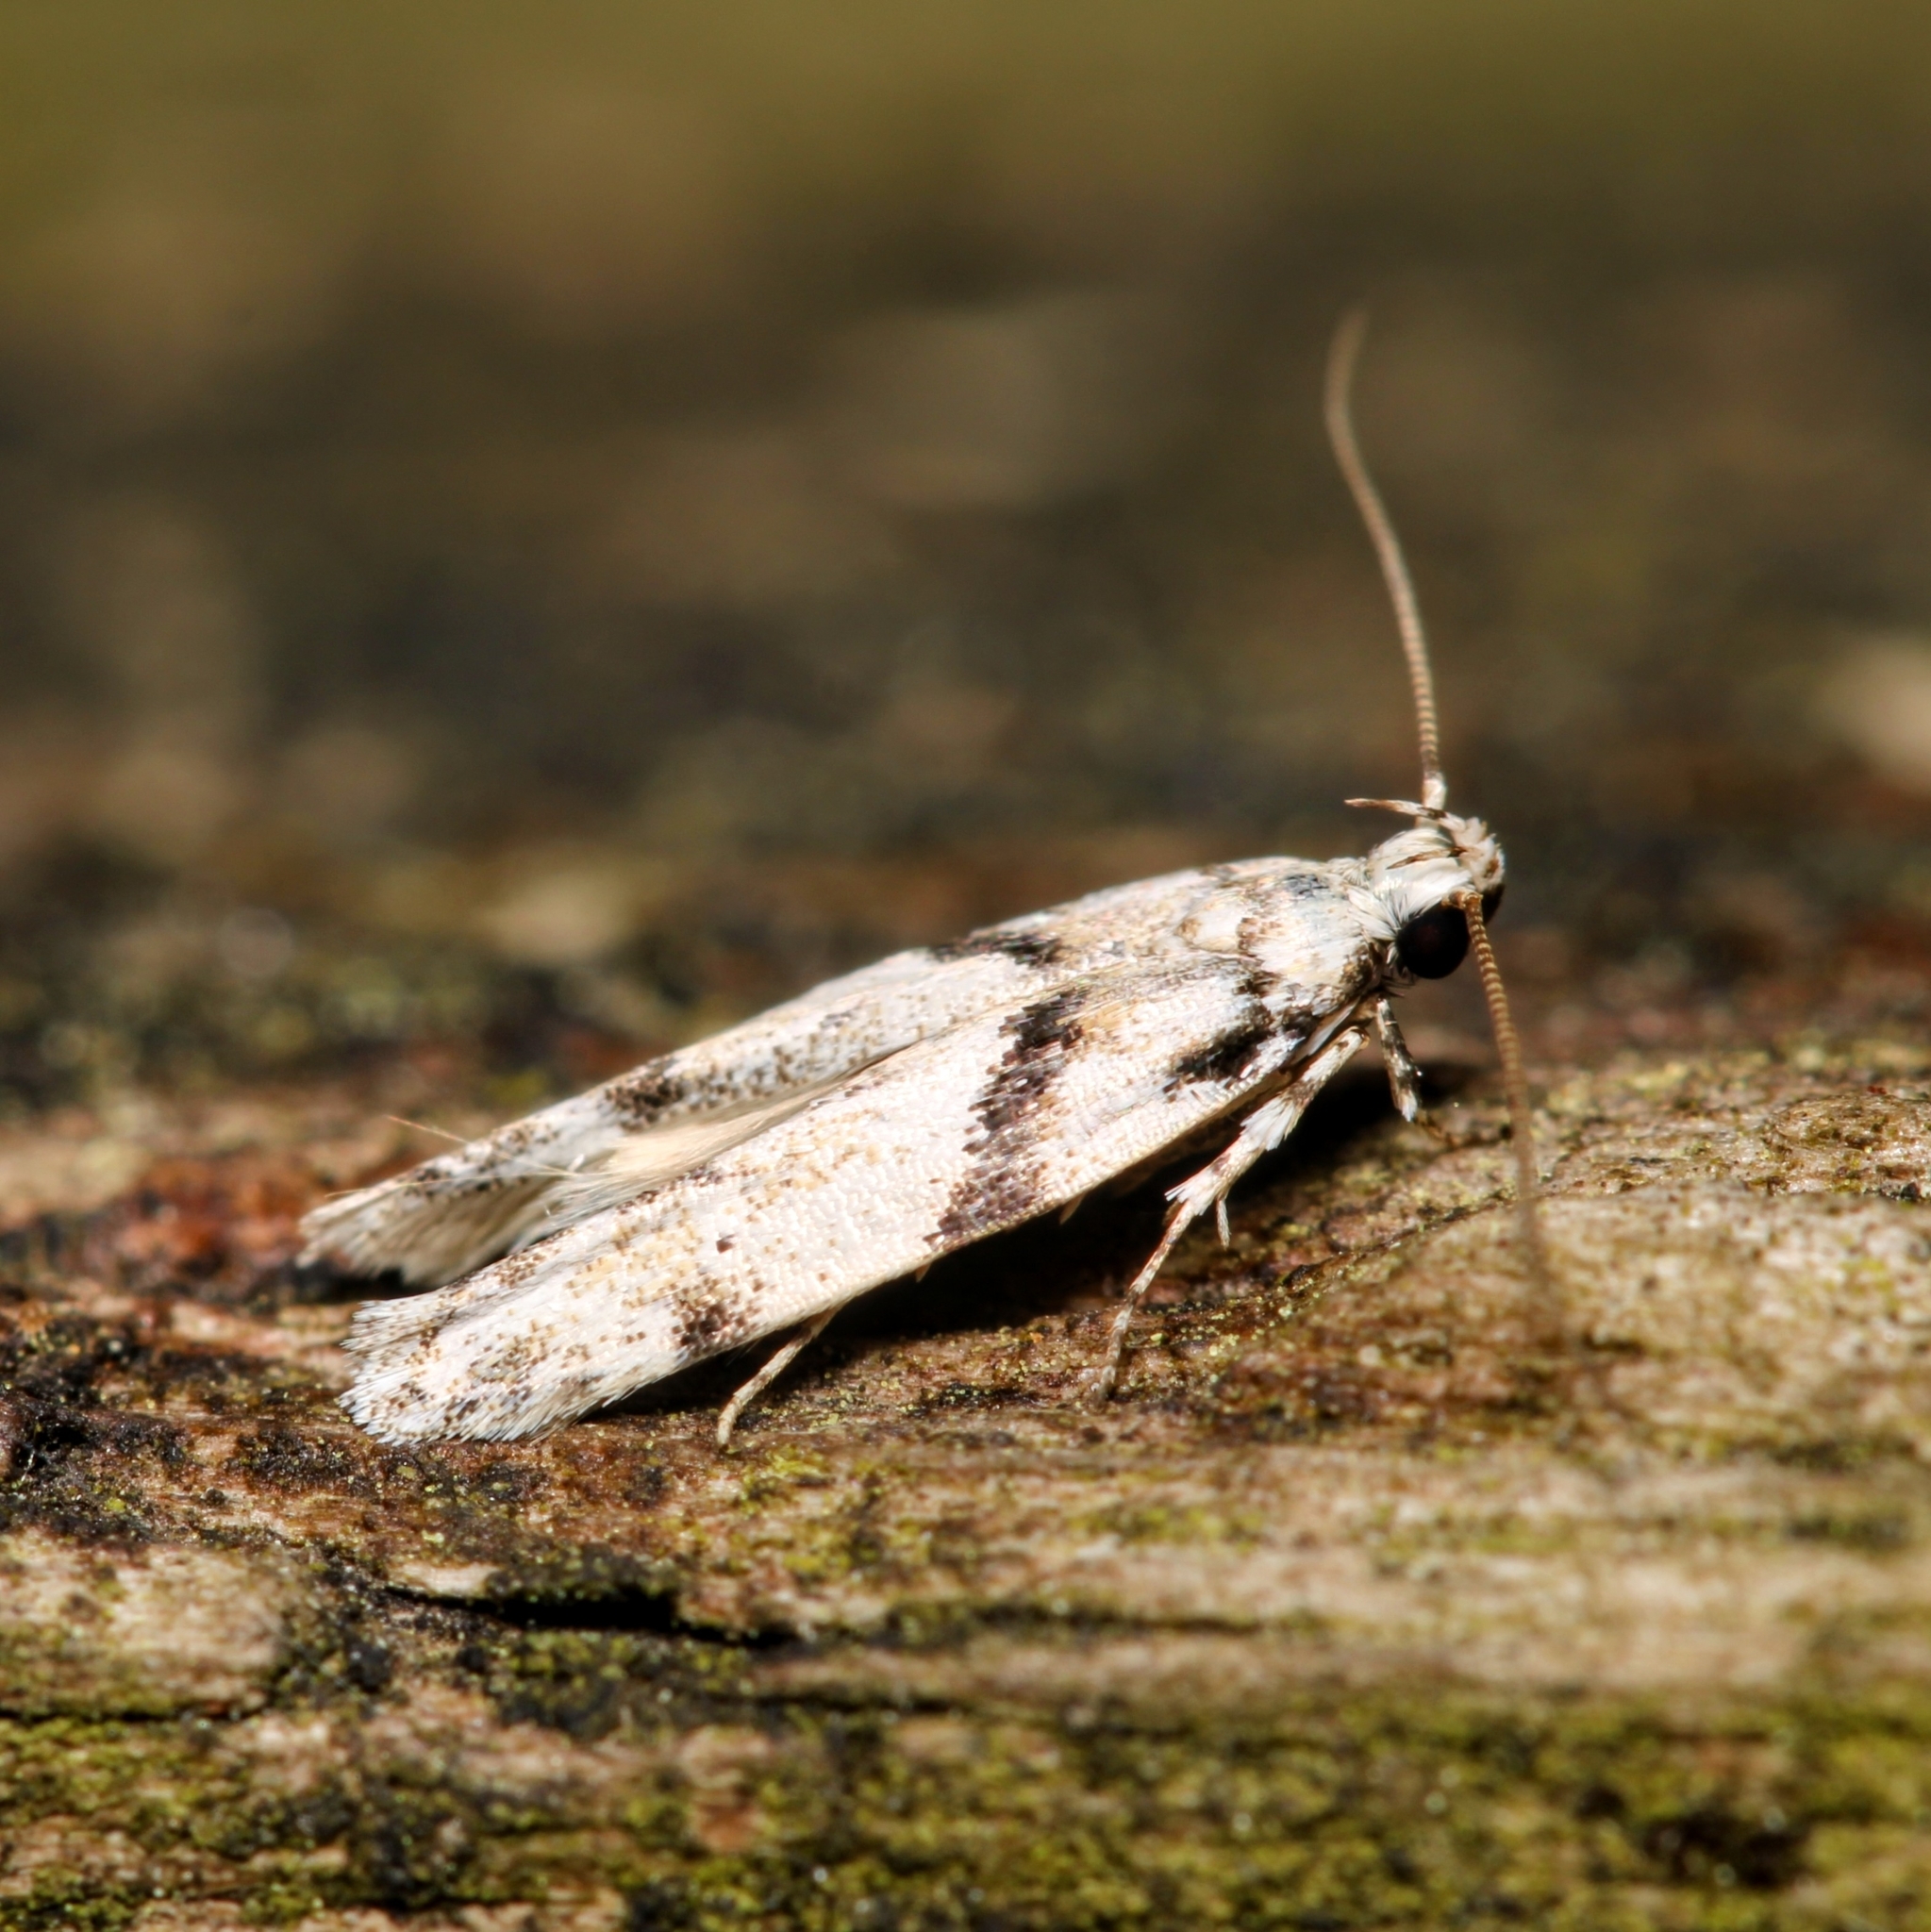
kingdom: Animalia
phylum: Arthropoda
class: Insecta
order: Lepidoptera
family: Gelechiidae
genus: Arogalea
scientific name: Arogalea cristifasciella
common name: White stripe-backed moth
